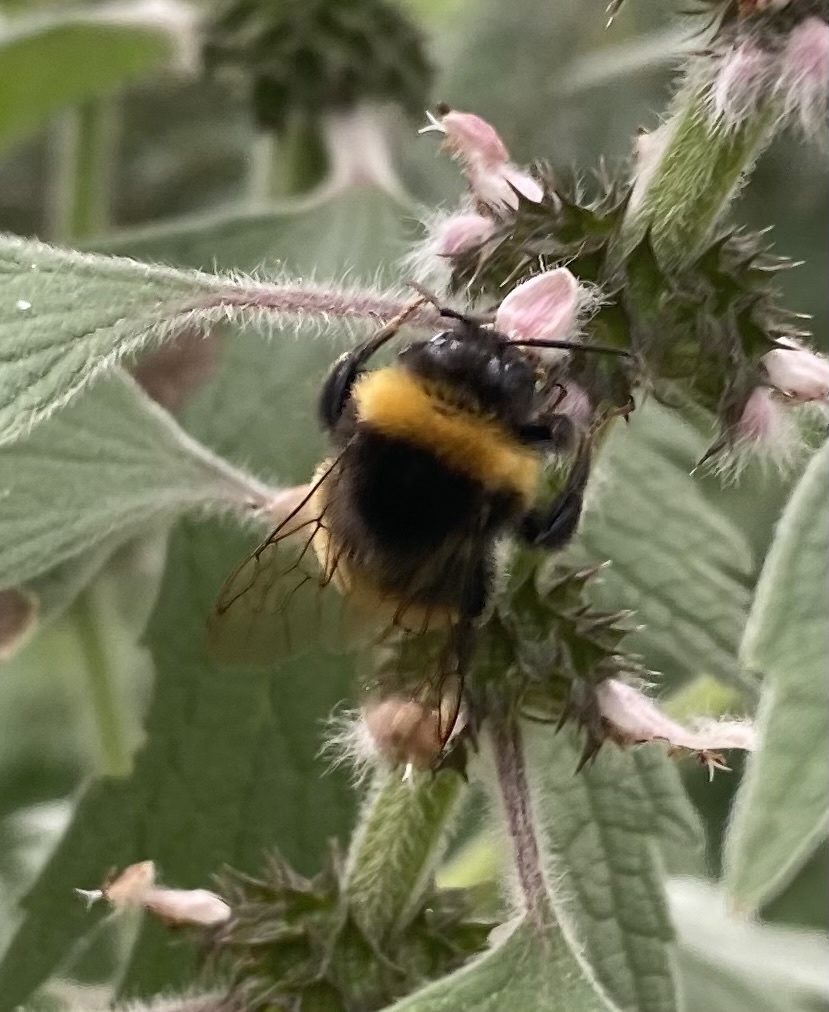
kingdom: Animalia
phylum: Arthropoda
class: Insecta
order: Hymenoptera
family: Apidae
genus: Bombus
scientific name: Bombus
